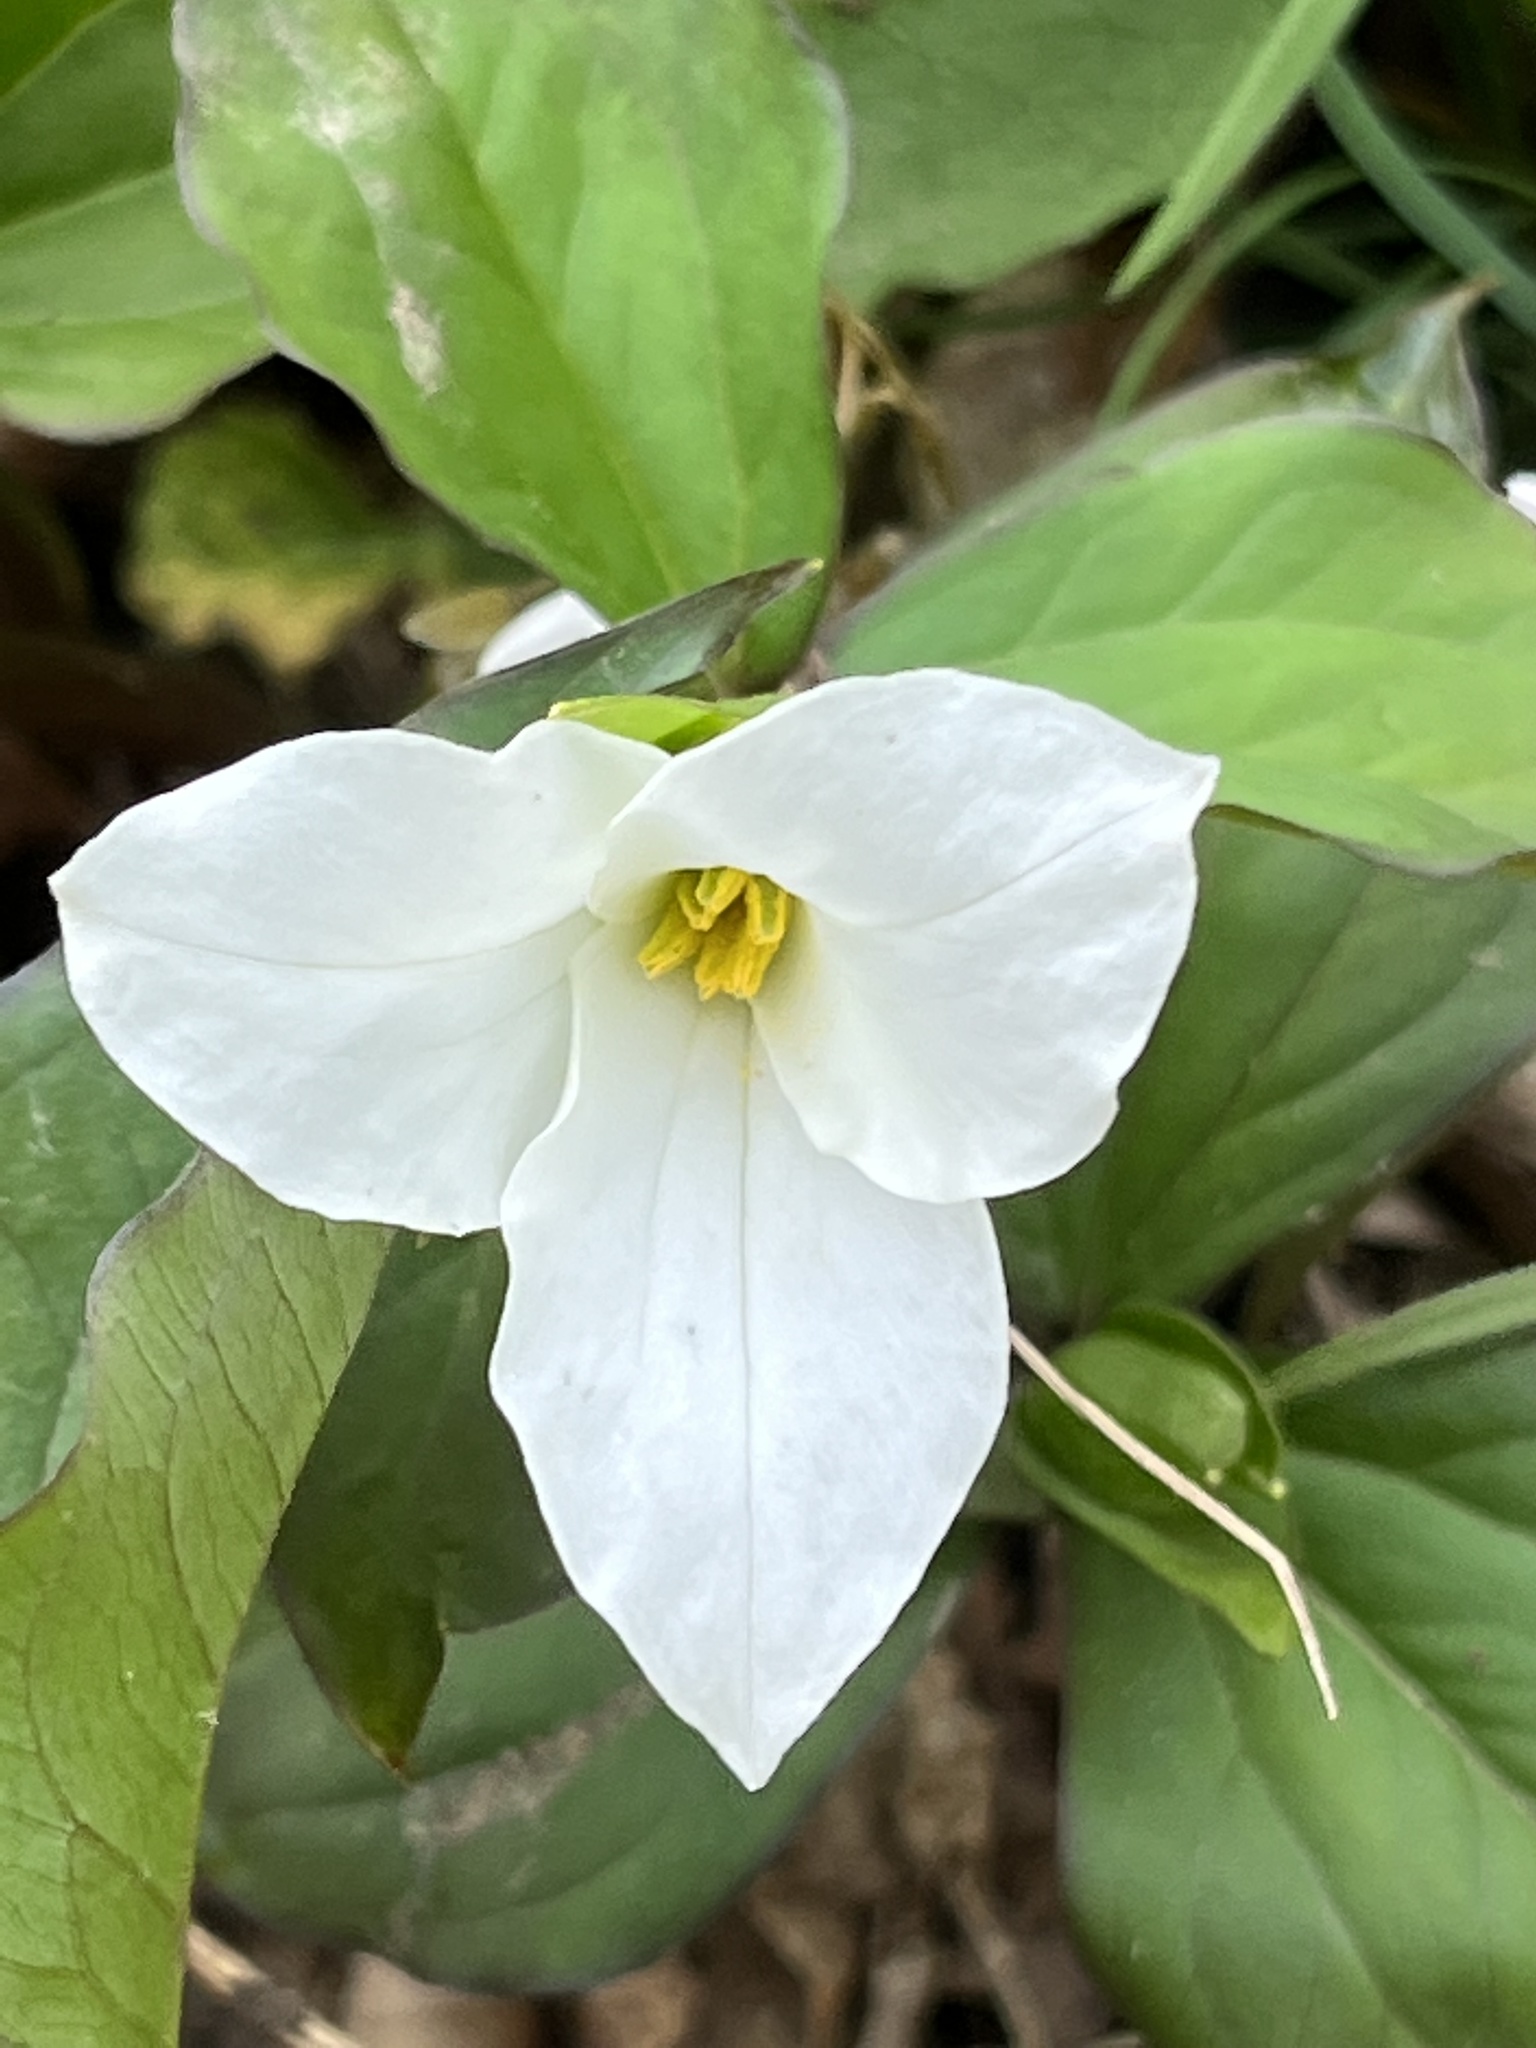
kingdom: Plantae
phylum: Tracheophyta
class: Liliopsida
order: Liliales
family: Melanthiaceae
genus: Trillium
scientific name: Trillium grandiflorum
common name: Great white trillium
